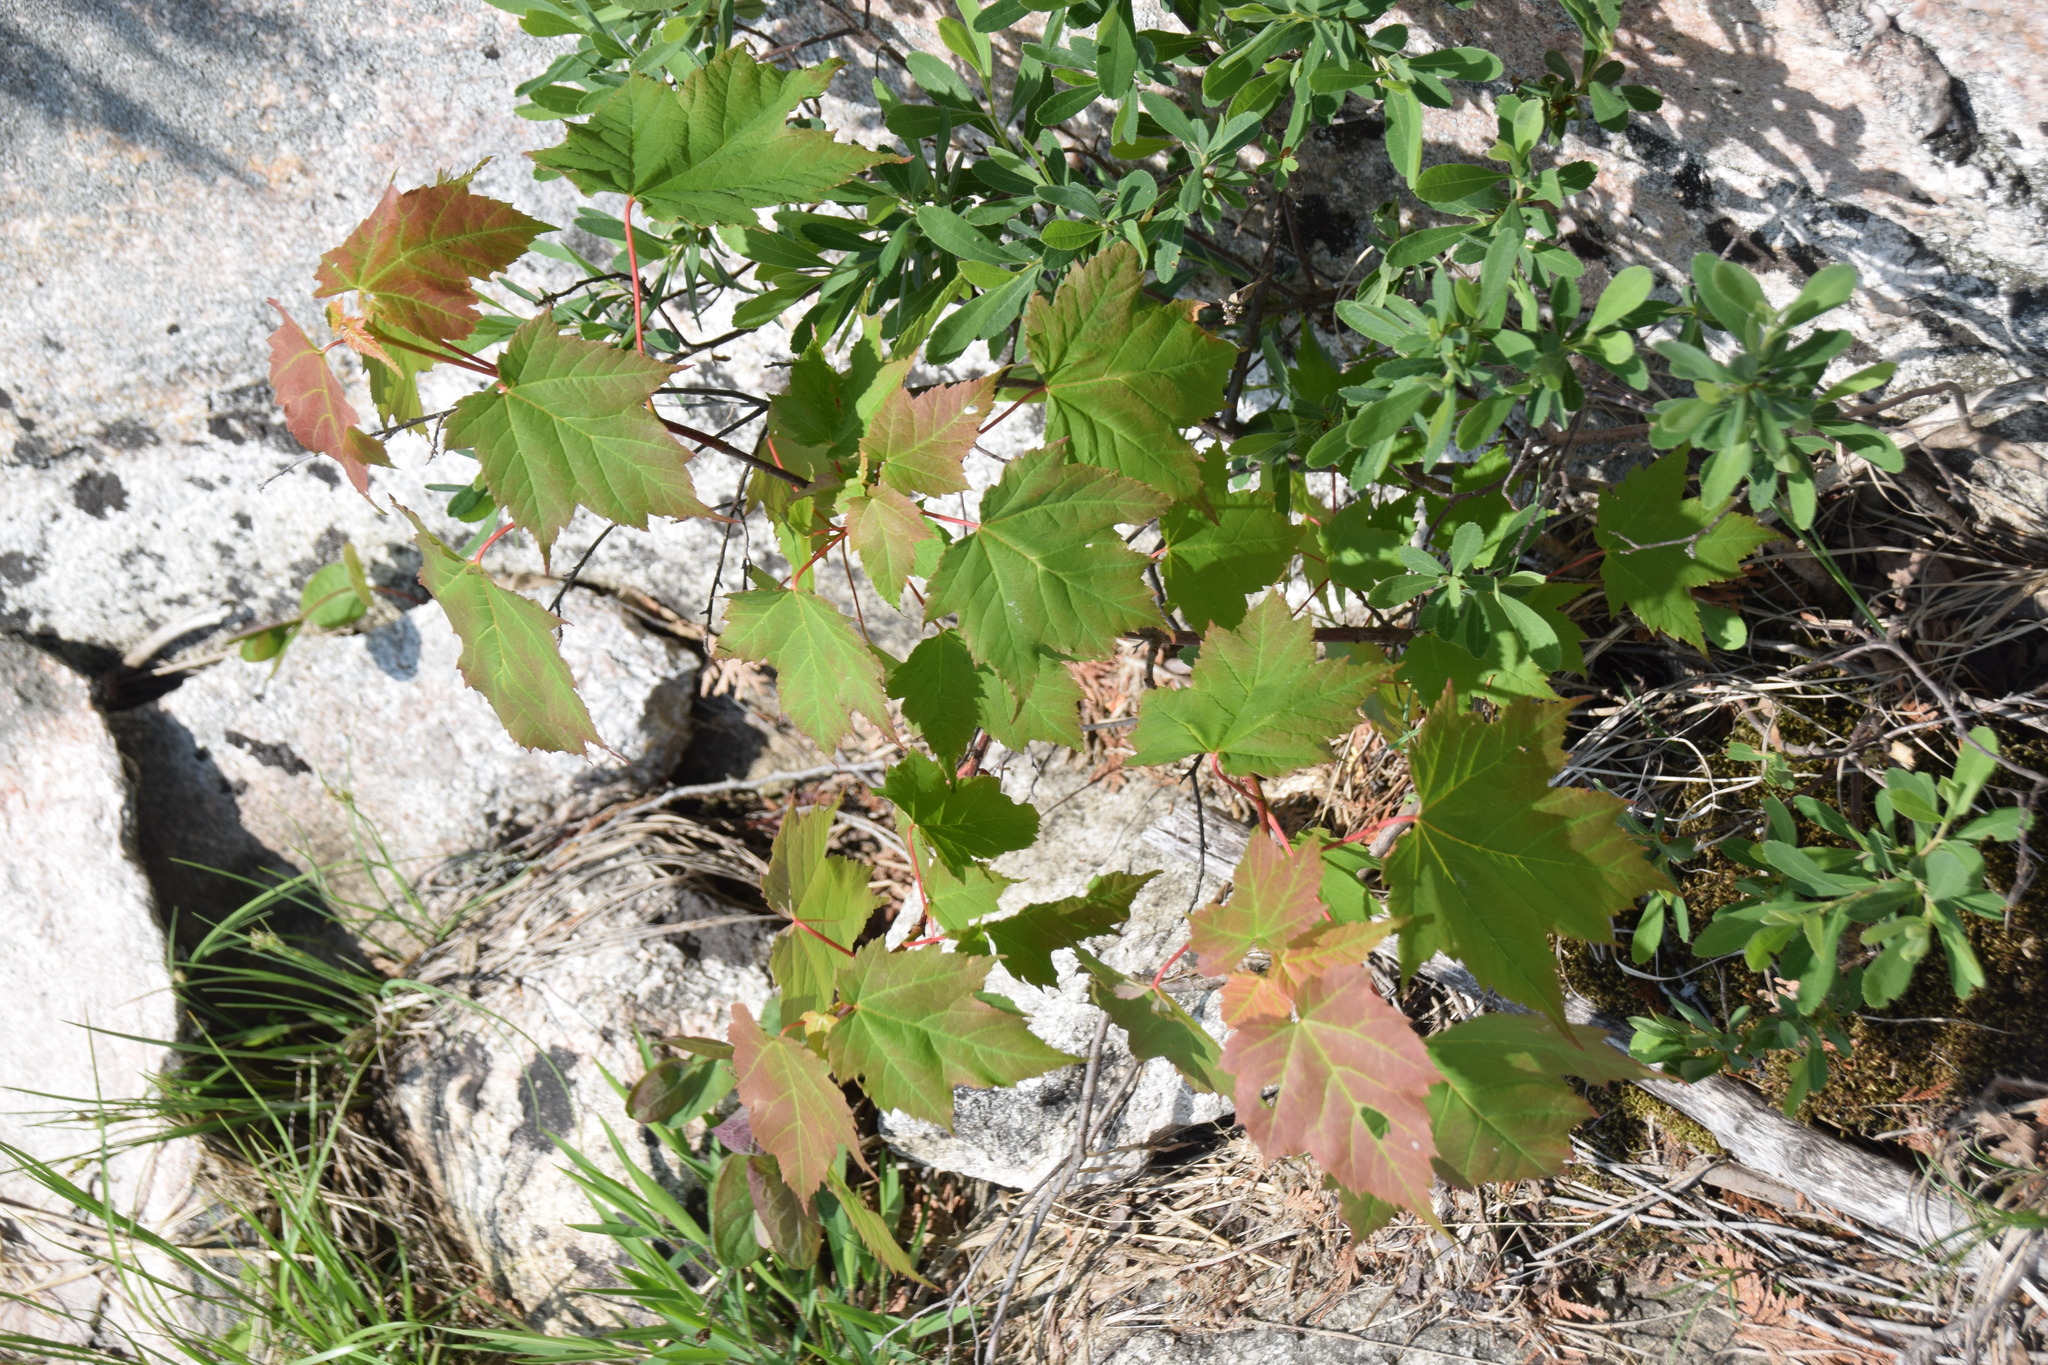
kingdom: Plantae
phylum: Tracheophyta
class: Magnoliopsida
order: Sapindales
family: Sapindaceae
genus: Acer
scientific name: Acer rubrum
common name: Red maple
